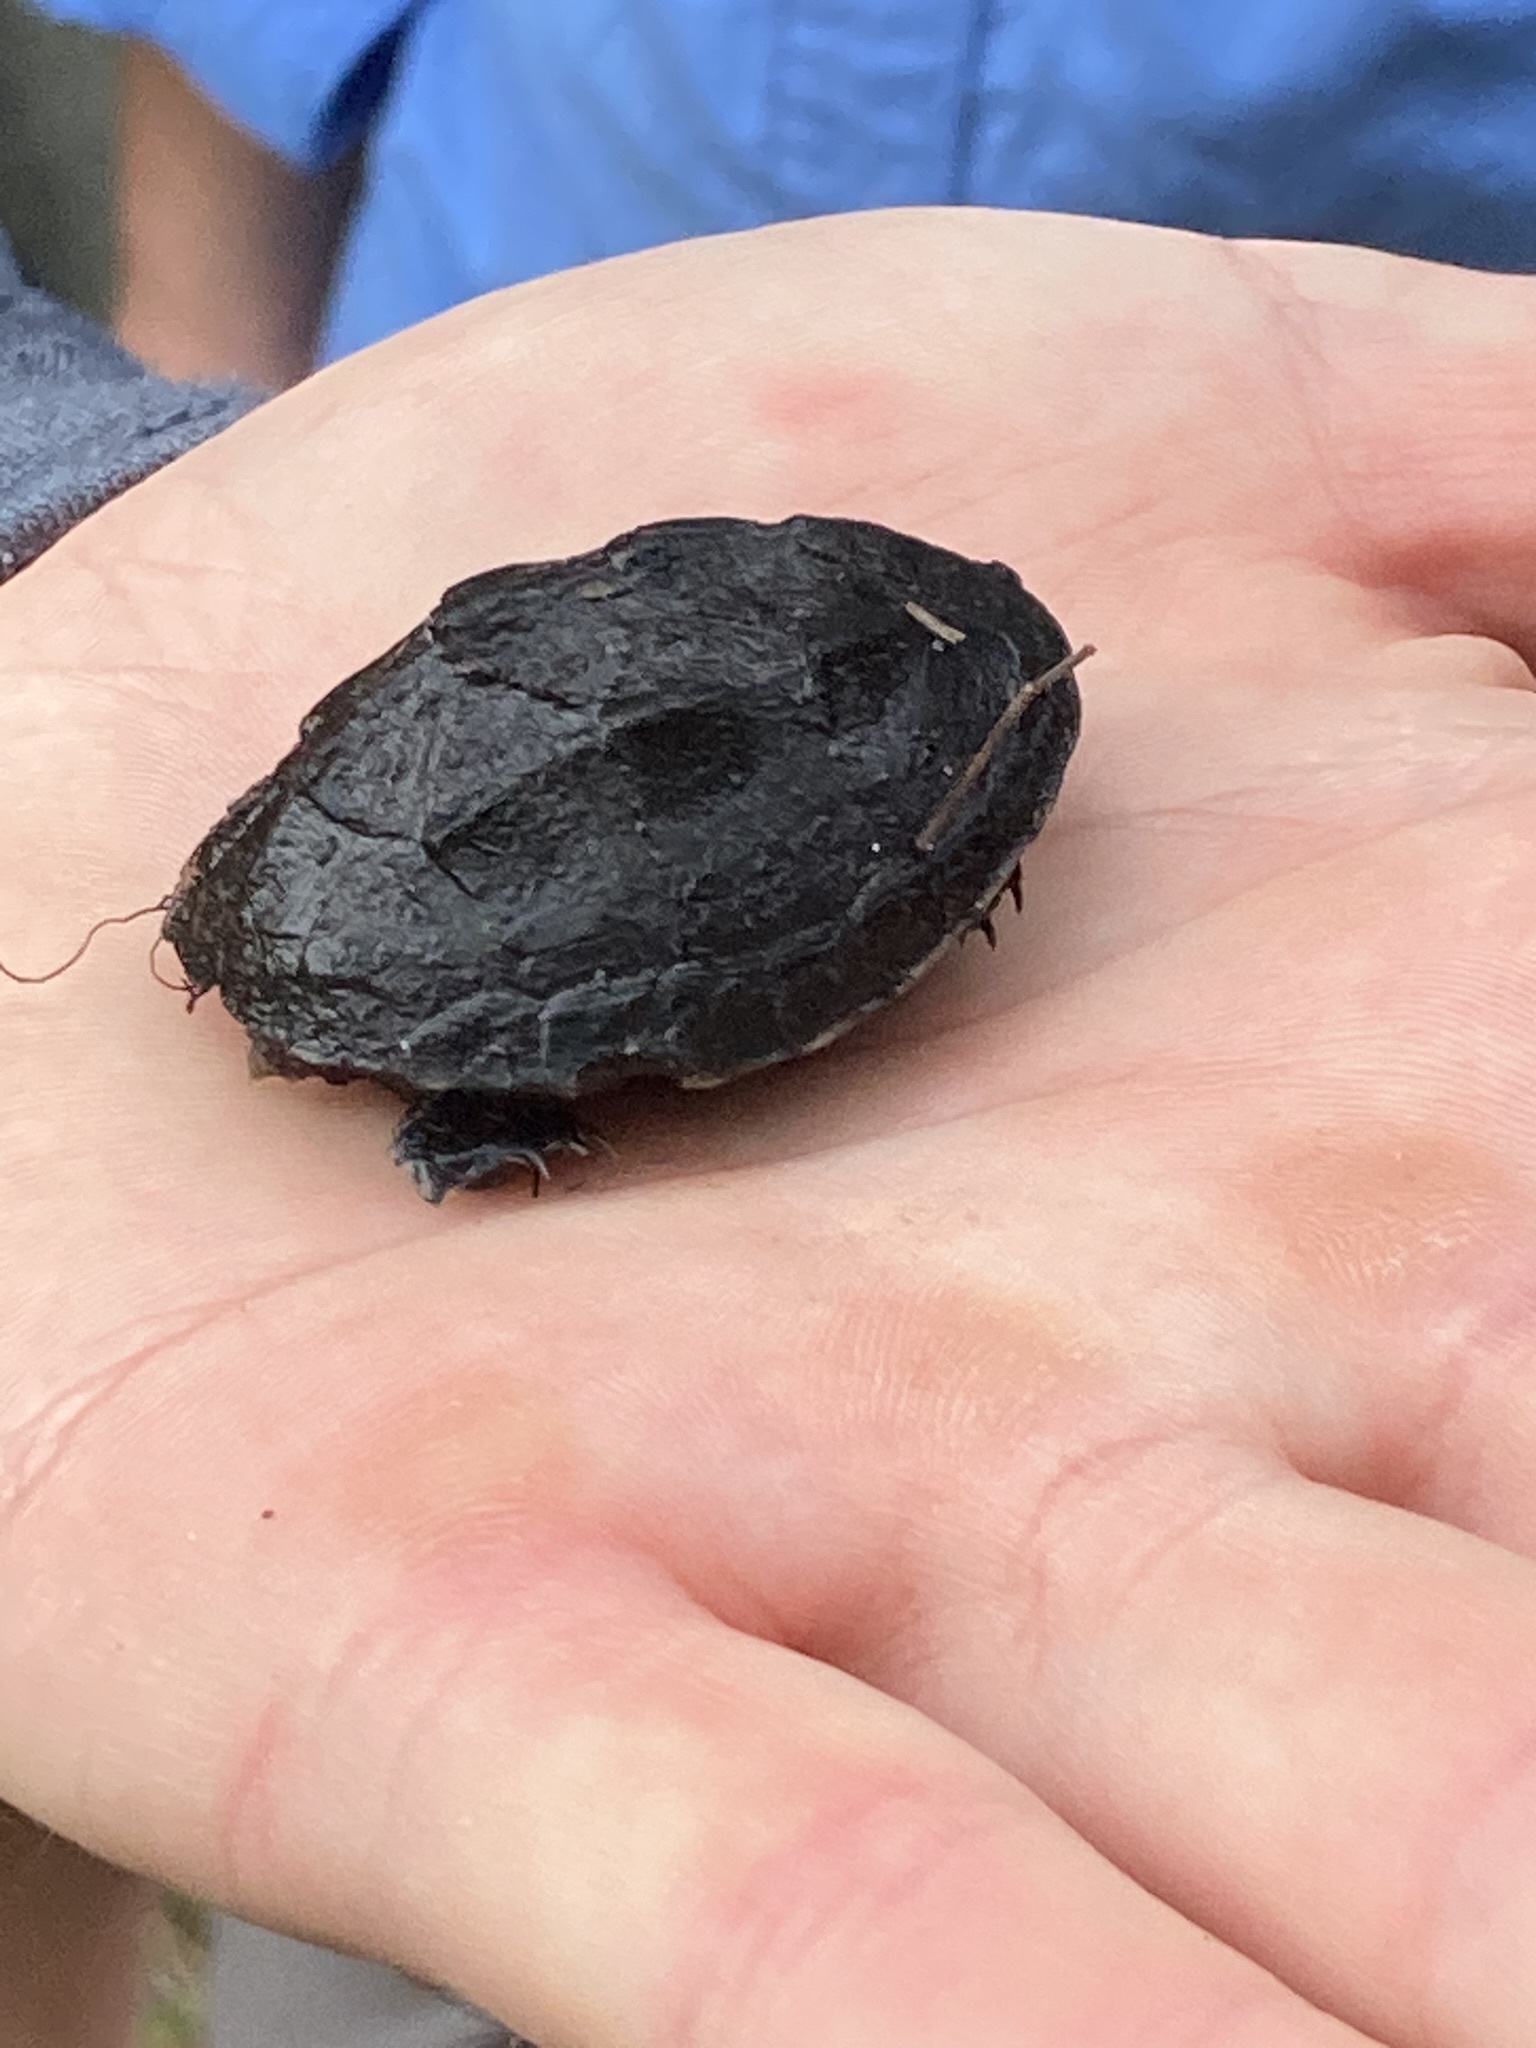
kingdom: Animalia
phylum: Chordata
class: Testudines
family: Kinosternidae
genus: Sternotherus
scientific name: Sternotherus odoratus
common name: Common musk turtle
